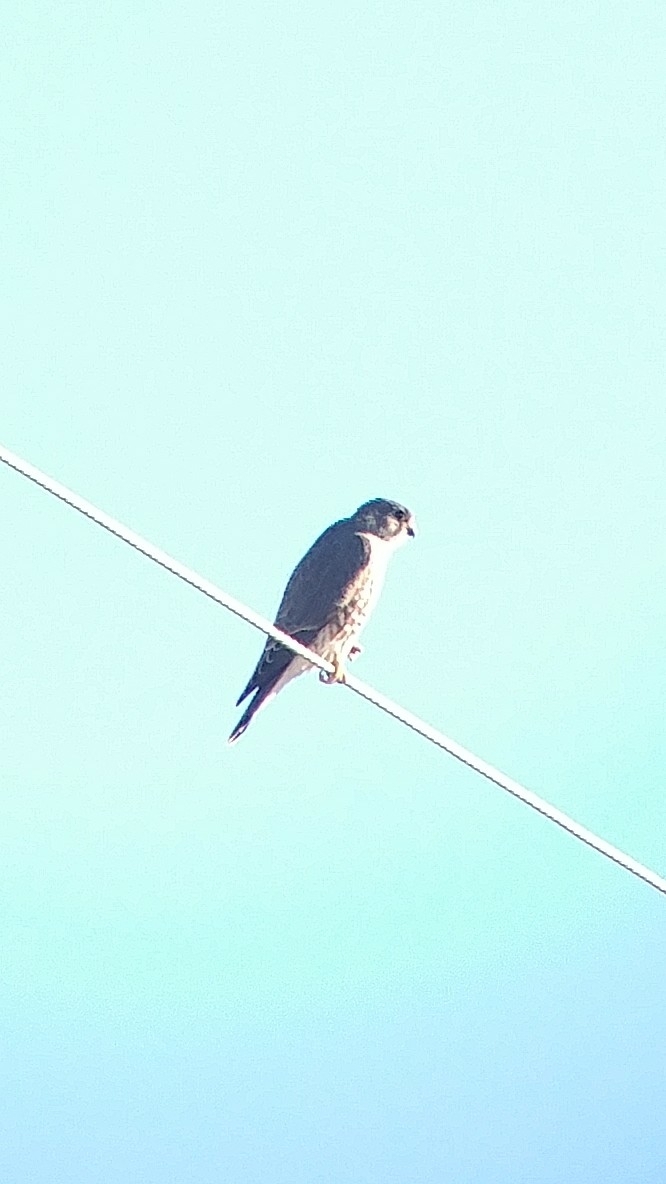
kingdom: Animalia
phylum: Chordata
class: Aves
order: Falconiformes
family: Falconidae
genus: Falco
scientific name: Falco columbarius
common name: Merlin
